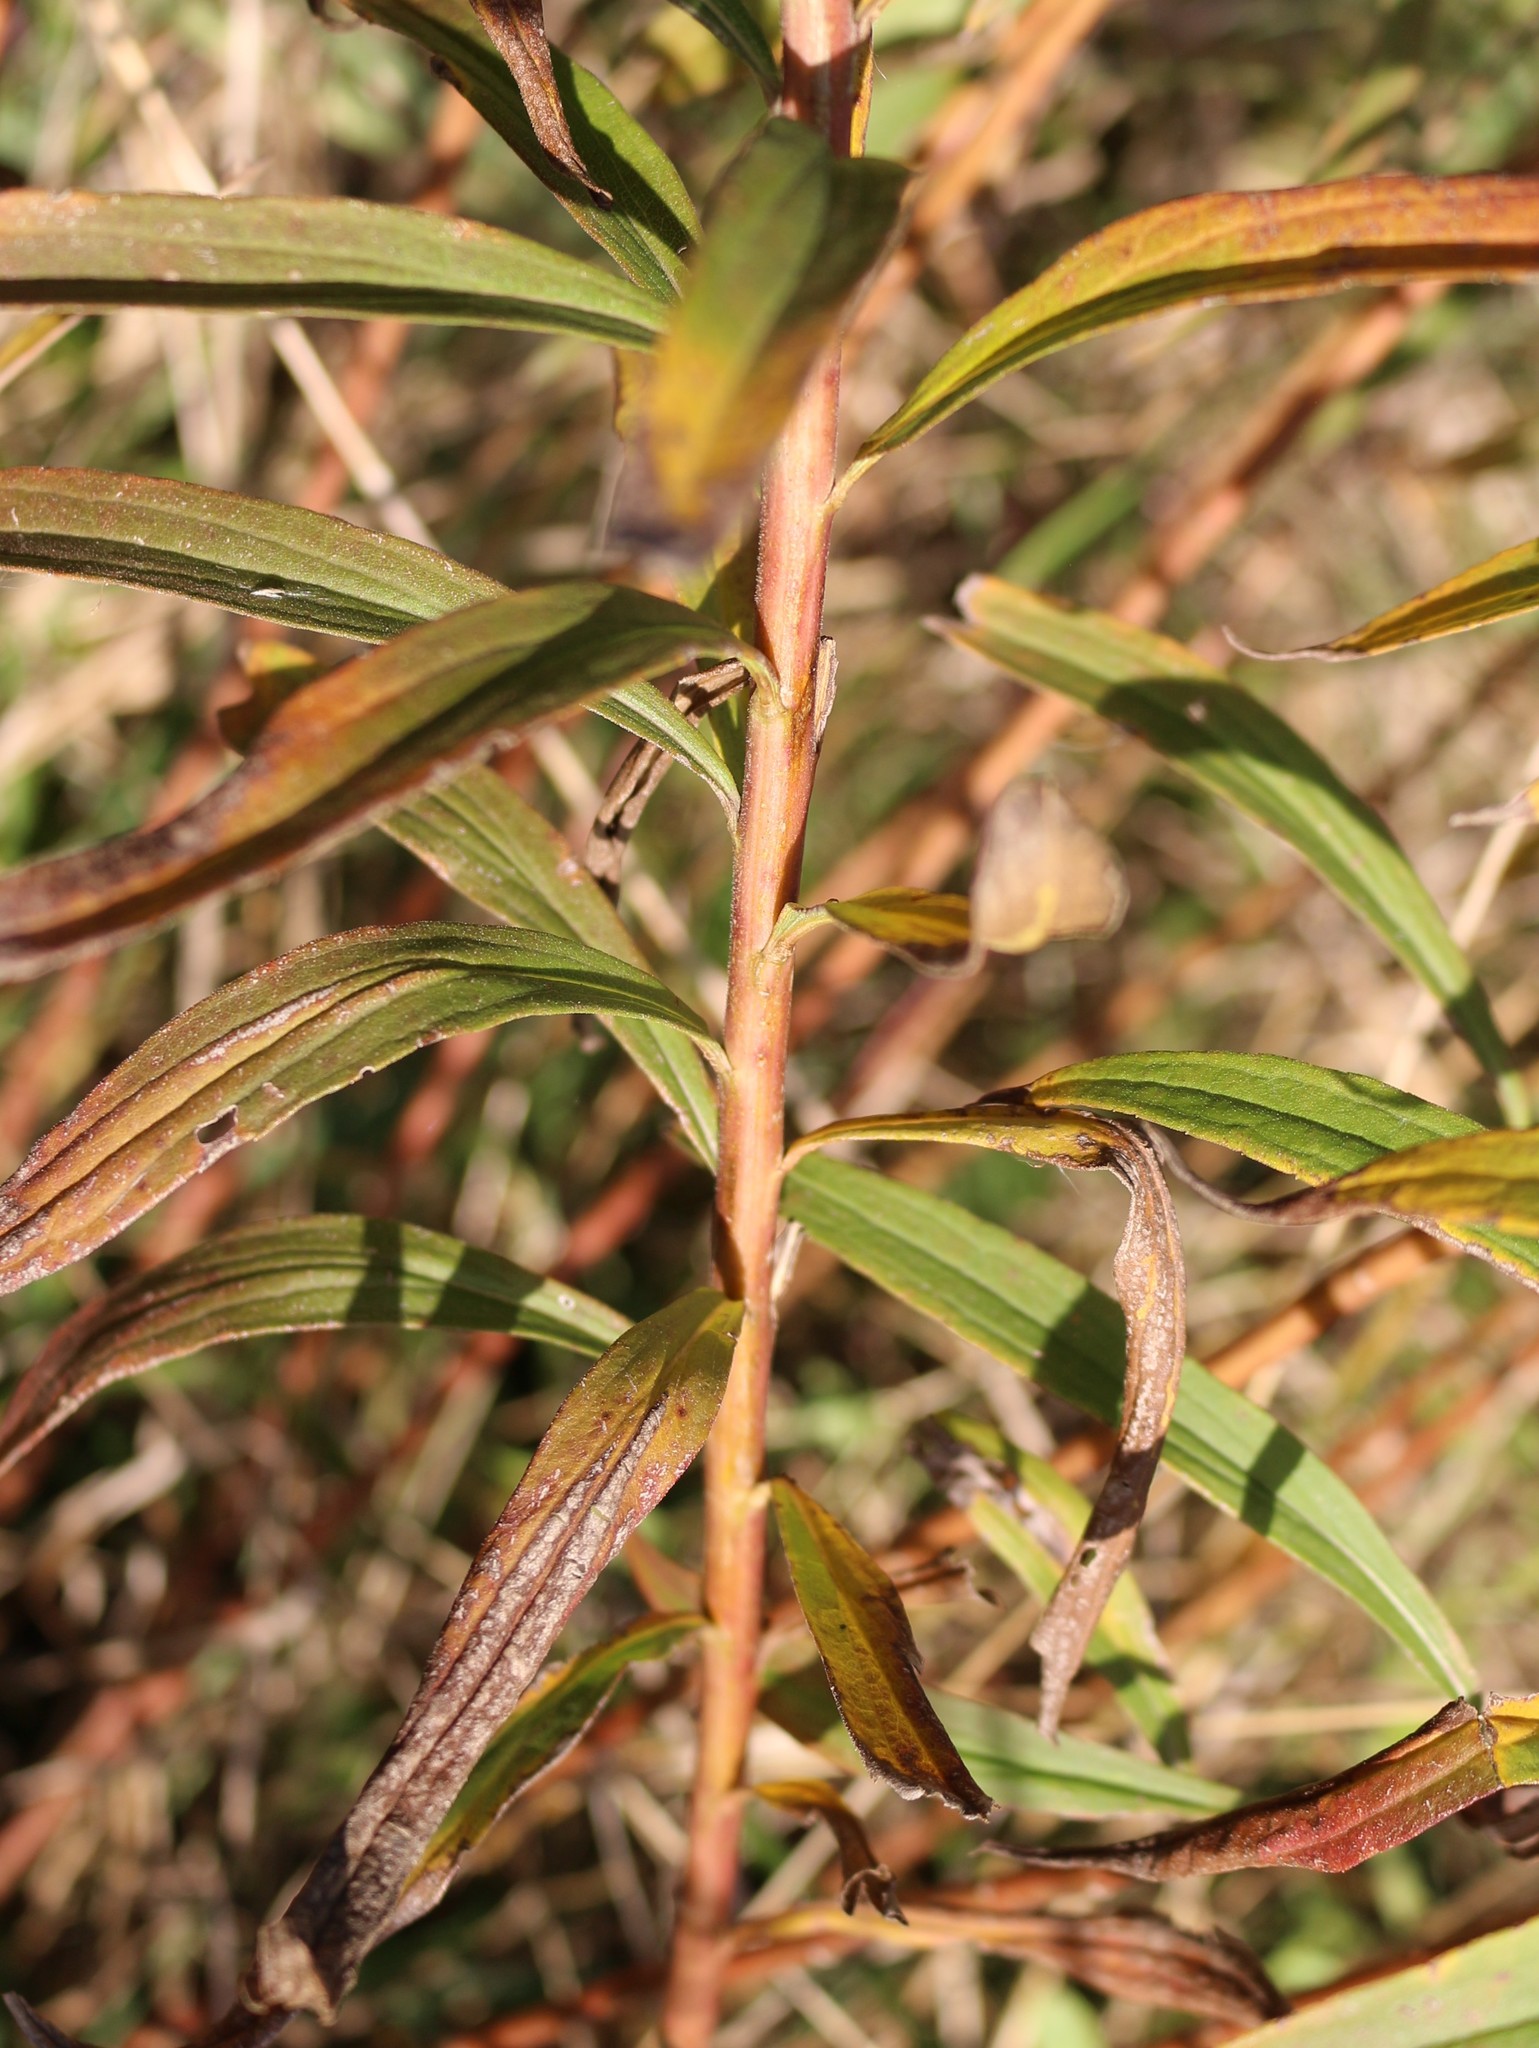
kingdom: Plantae
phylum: Tracheophyta
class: Magnoliopsida
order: Asterales
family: Asteraceae
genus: Solidago
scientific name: Solidago canadensis
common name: Canada goldenrod
